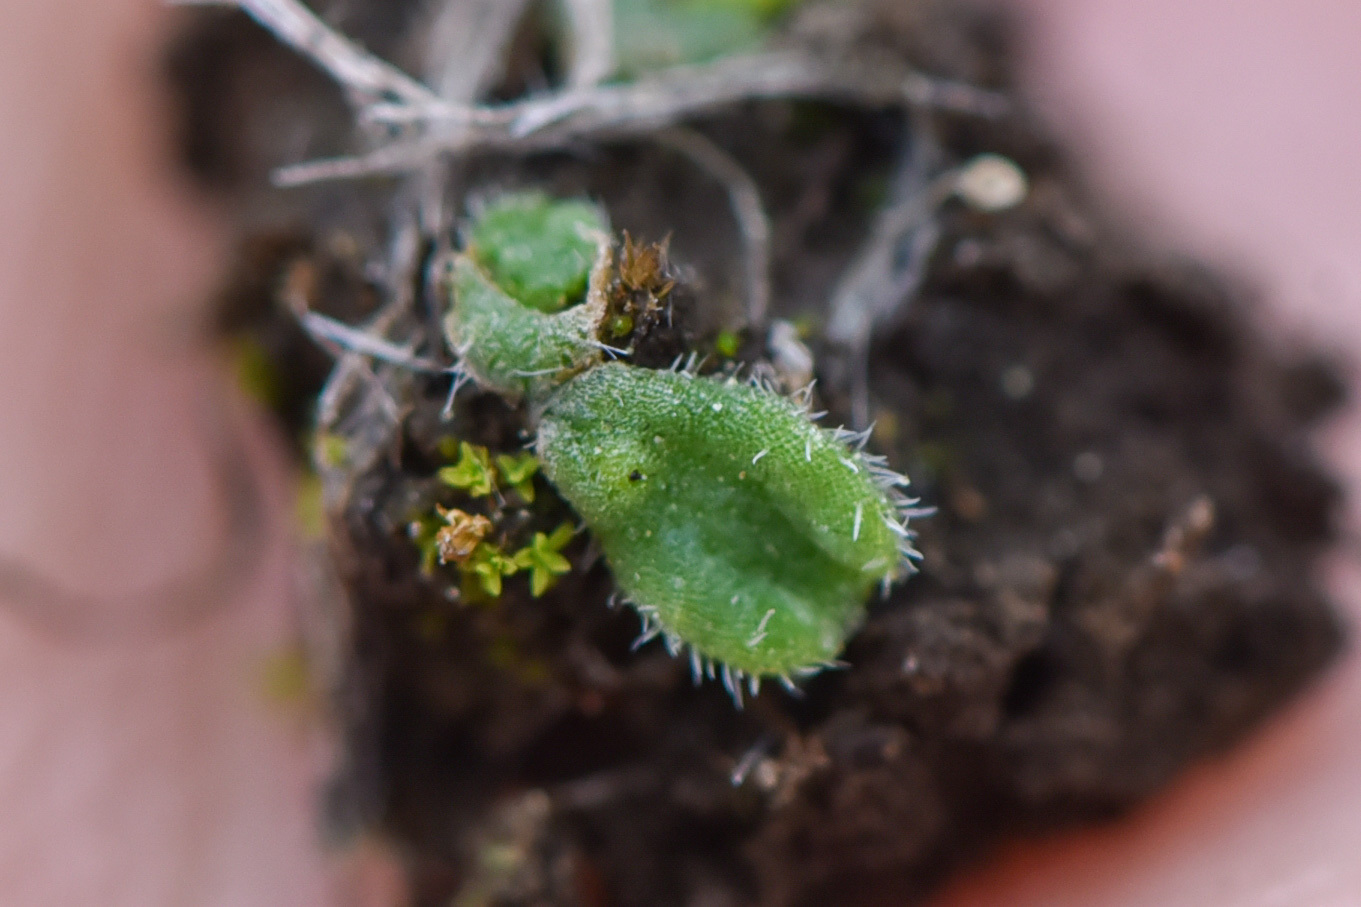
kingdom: Plantae
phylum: Marchantiophyta
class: Marchantiopsida
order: Marchantiales
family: Ricciaceae
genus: Riccia
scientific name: Riccia trichocarpa
